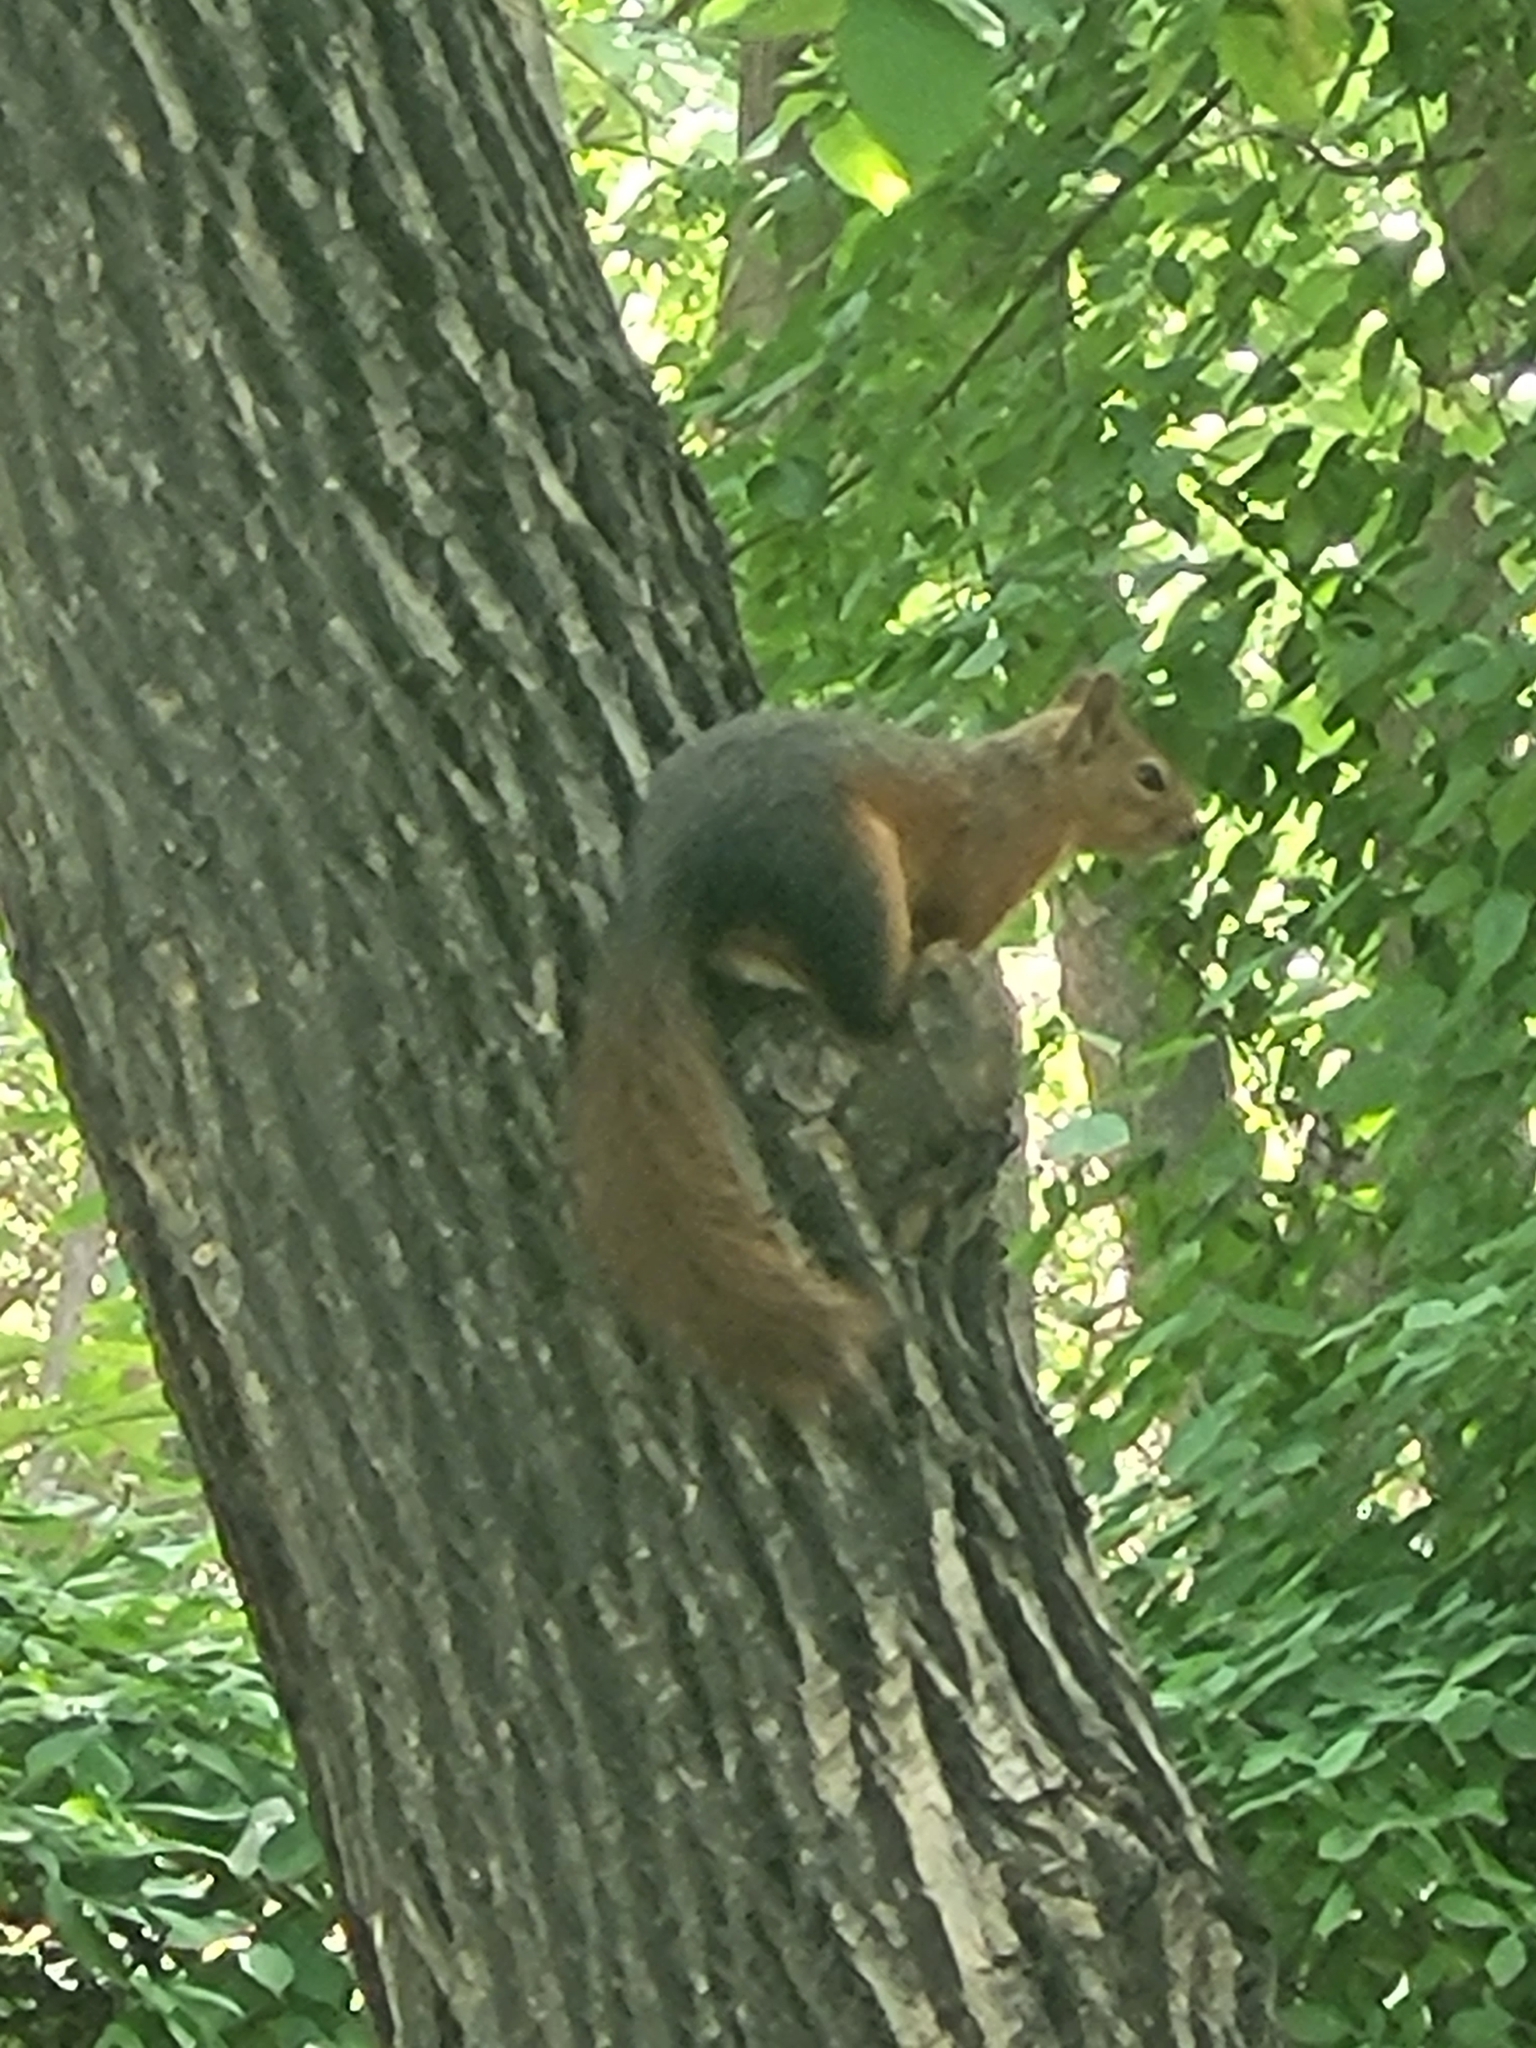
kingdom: Animalia
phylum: Chordata
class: Mammalia
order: Rodentia
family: Sciuridae
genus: Sciurus
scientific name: Sciurus anomalus
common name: Caucasian squirrel
